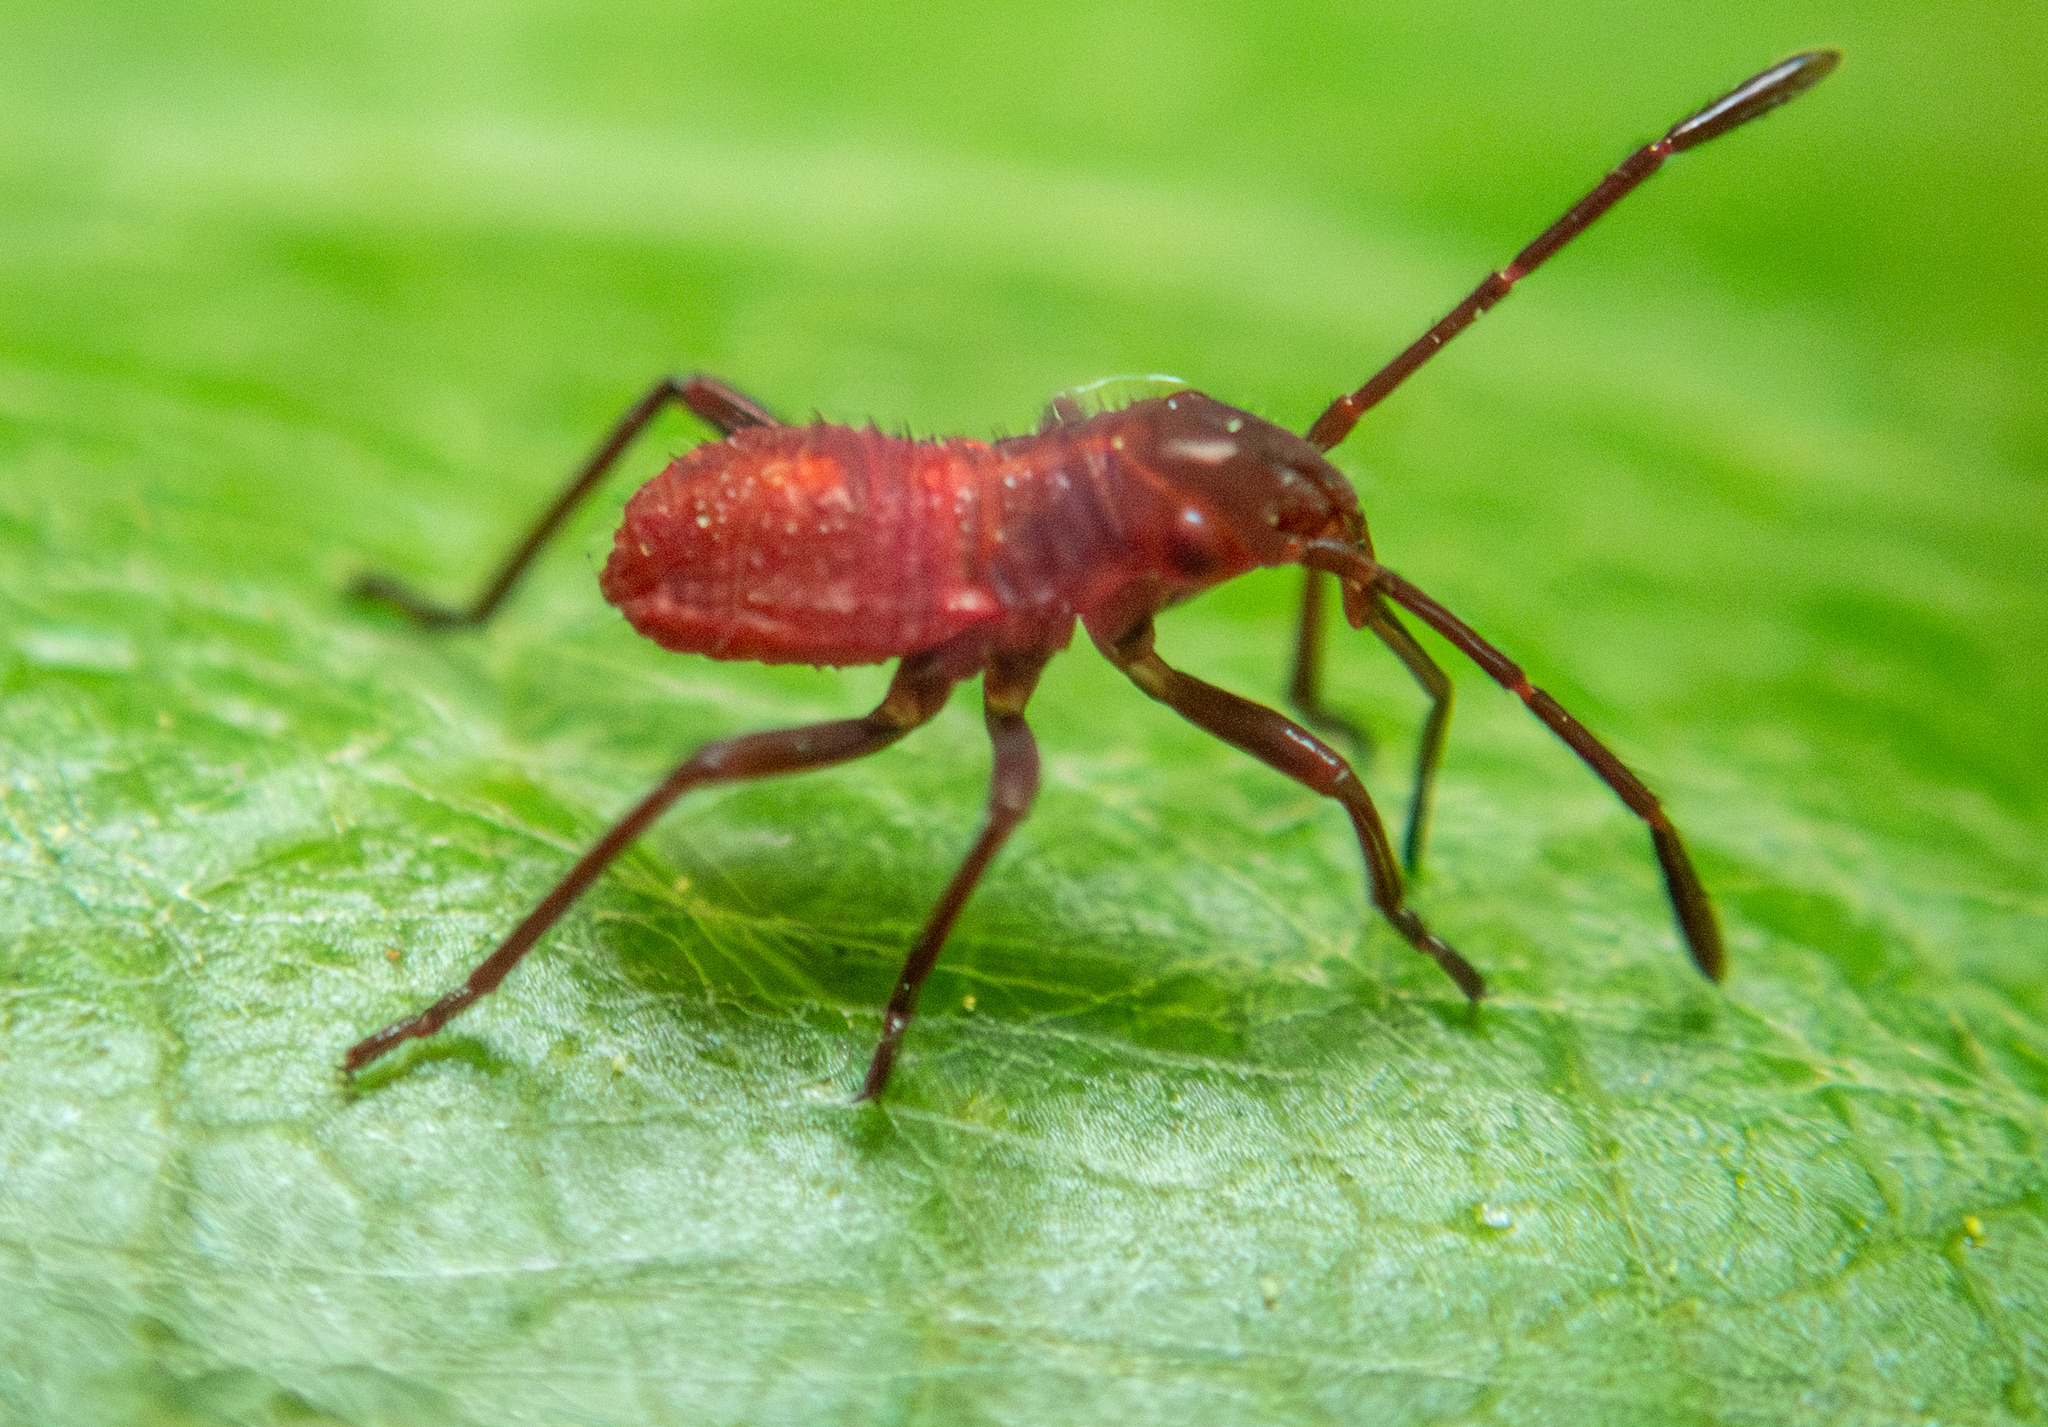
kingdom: Animalia
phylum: Arthropoda
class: Insecta
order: Hemiptera
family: Rhopalidae
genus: Boisea
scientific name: Boisea rubrolineata
